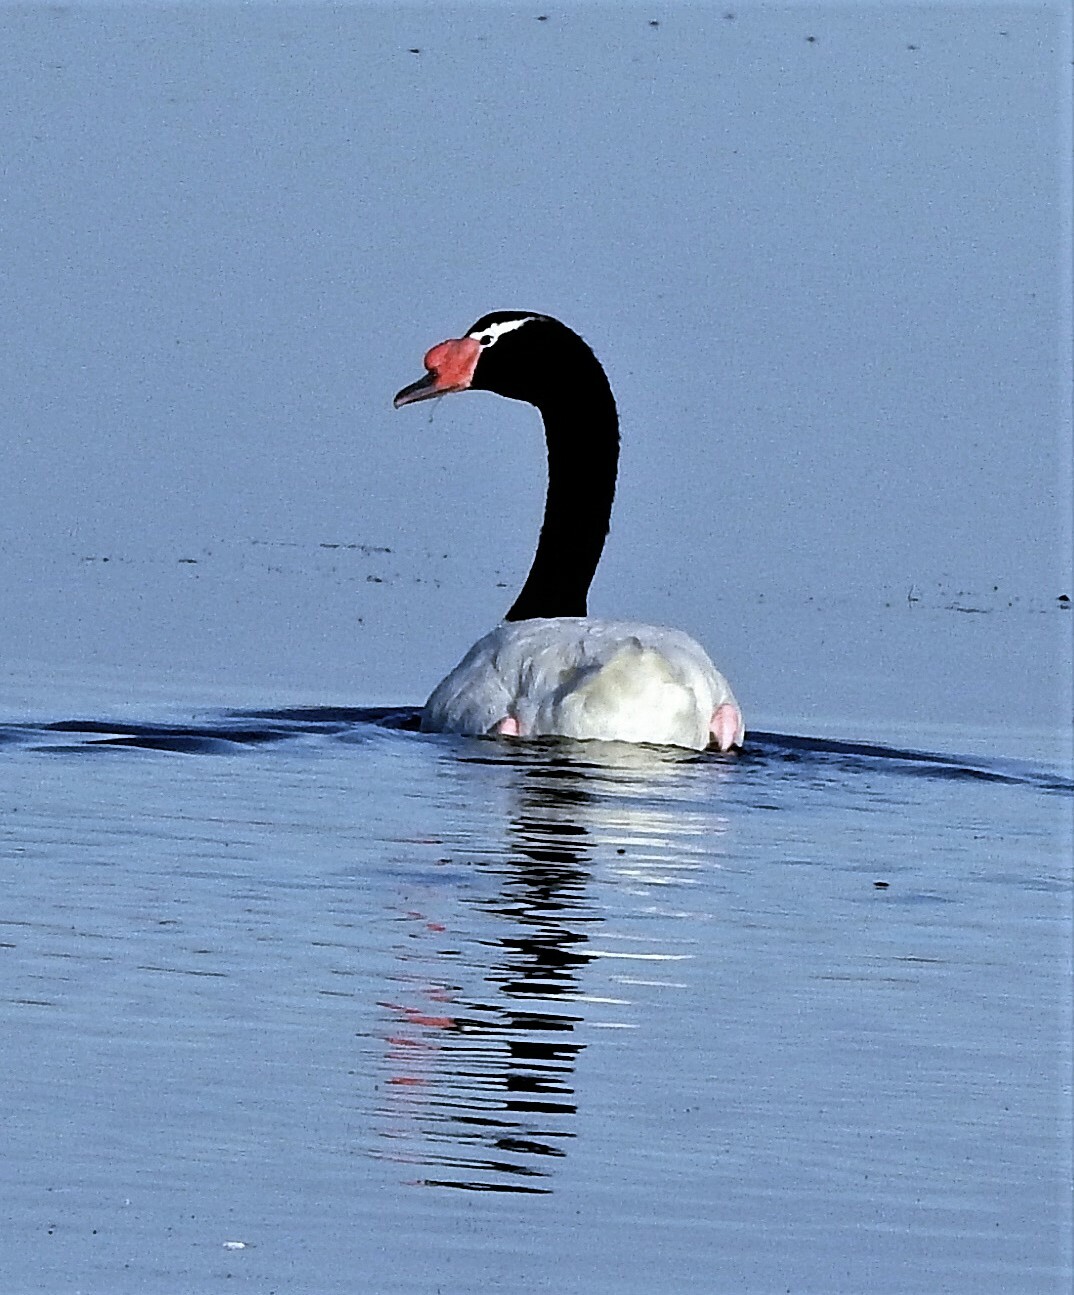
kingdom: Animalia
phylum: Chordata
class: Aves
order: Anseriformes
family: Anatidae
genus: Cygnus
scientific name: Cygnus melancoryphus
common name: Black-necked swan
